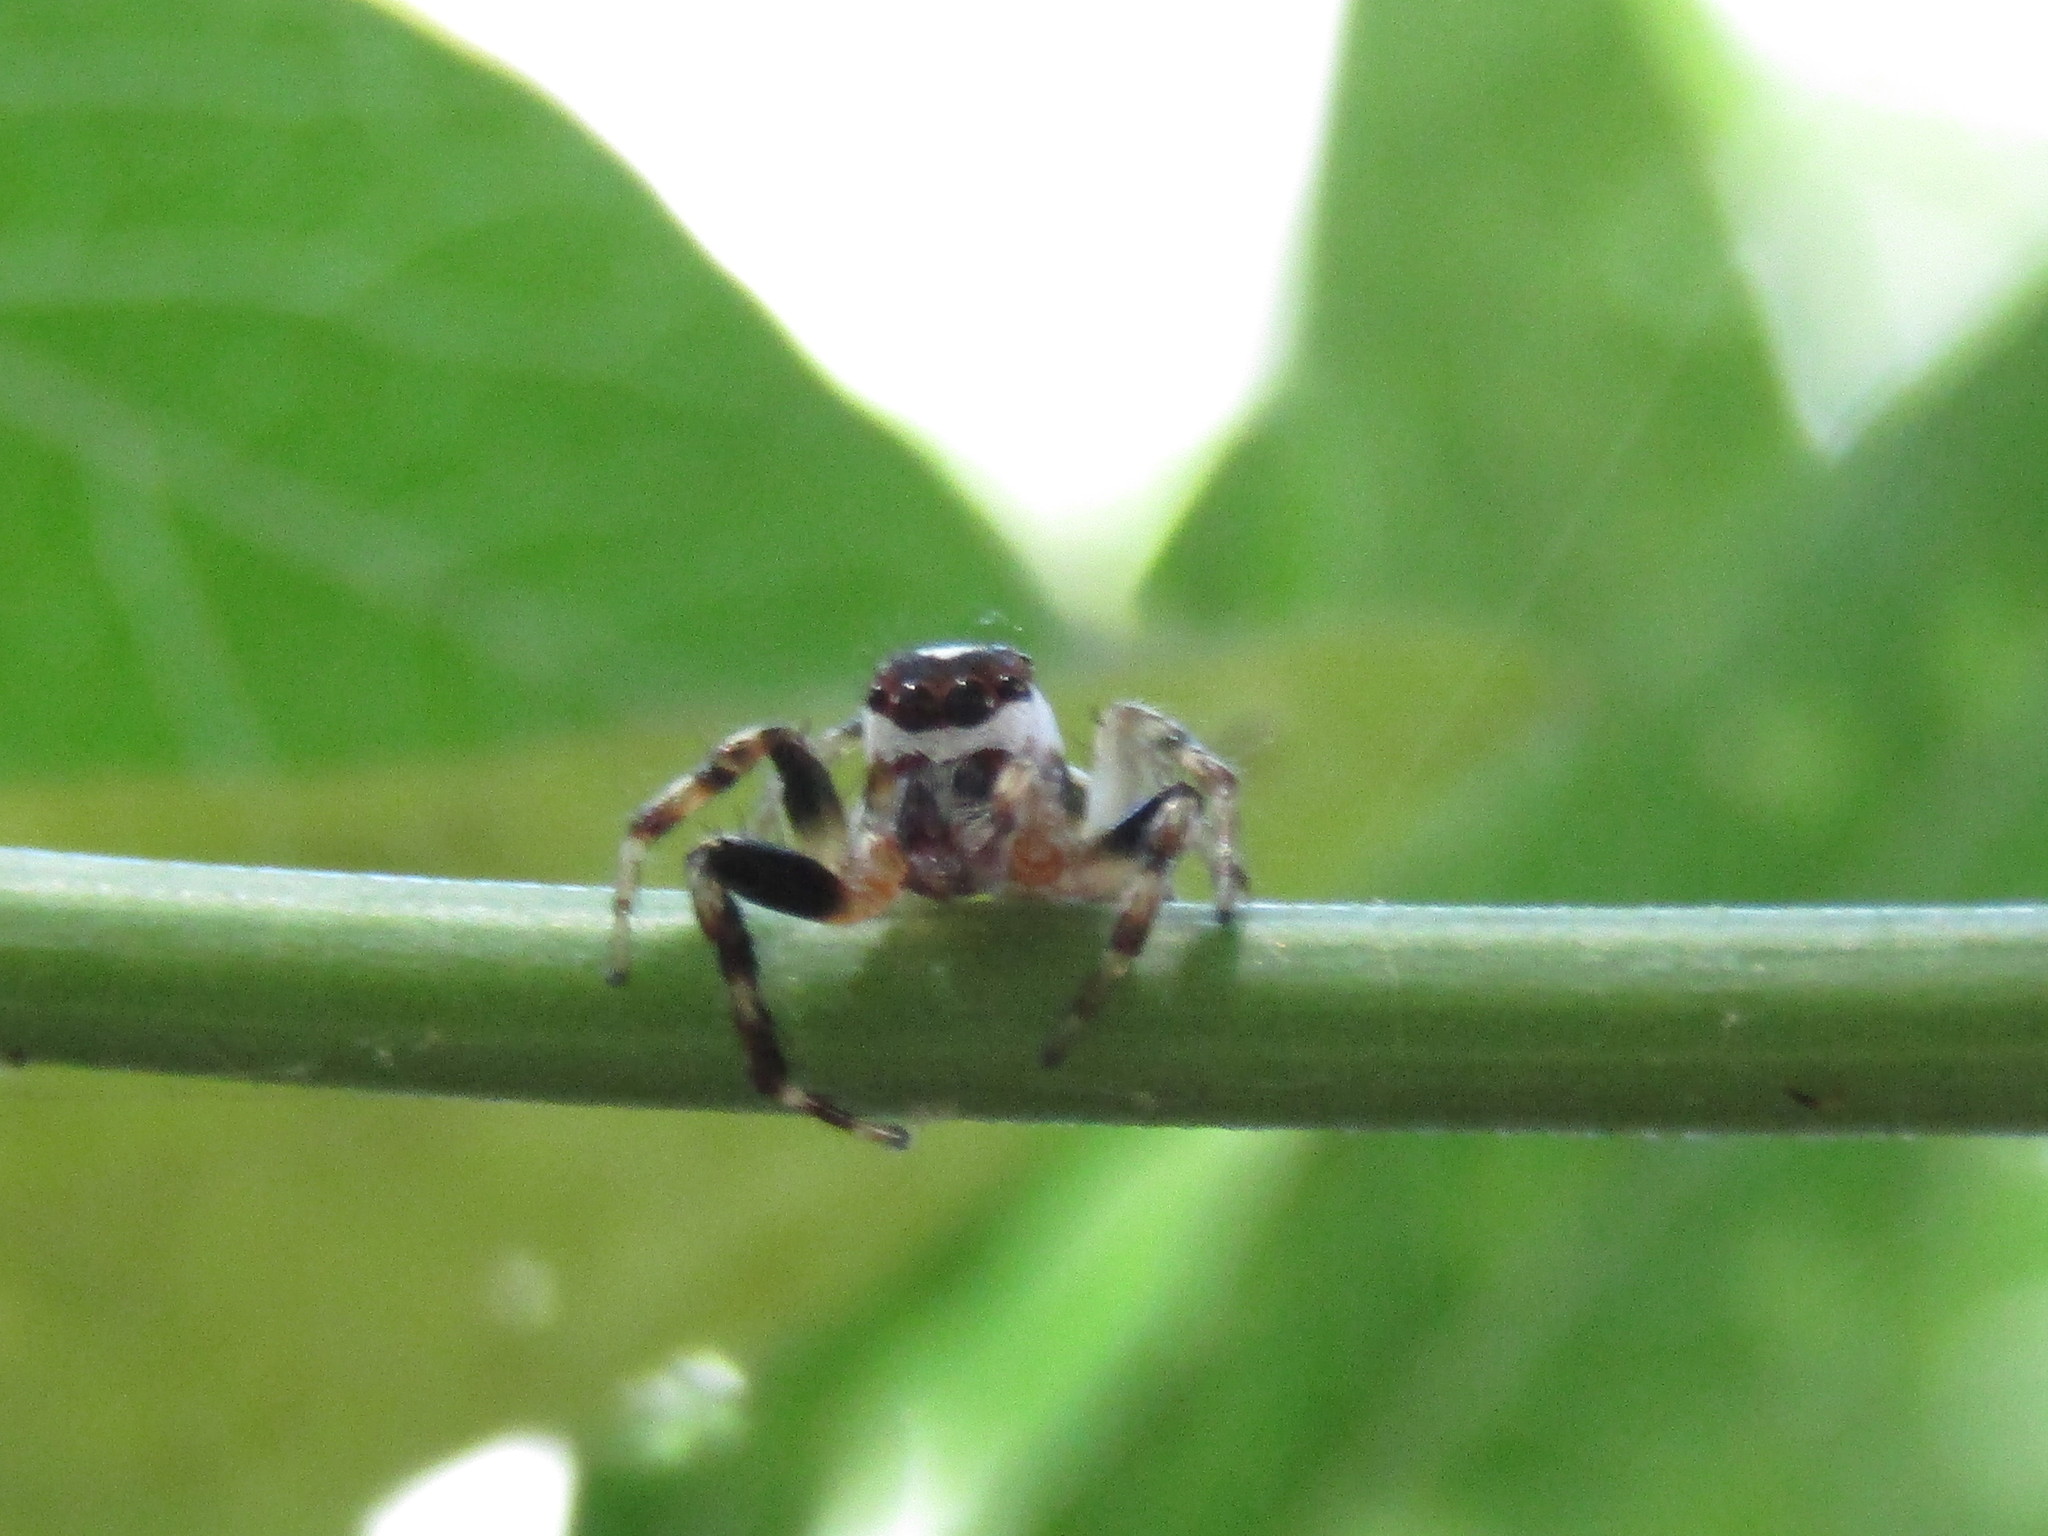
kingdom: Animalia
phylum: Arthropoda
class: Arachnida
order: Araneae
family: Salticidae
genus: Chira
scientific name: Chira gounellei
